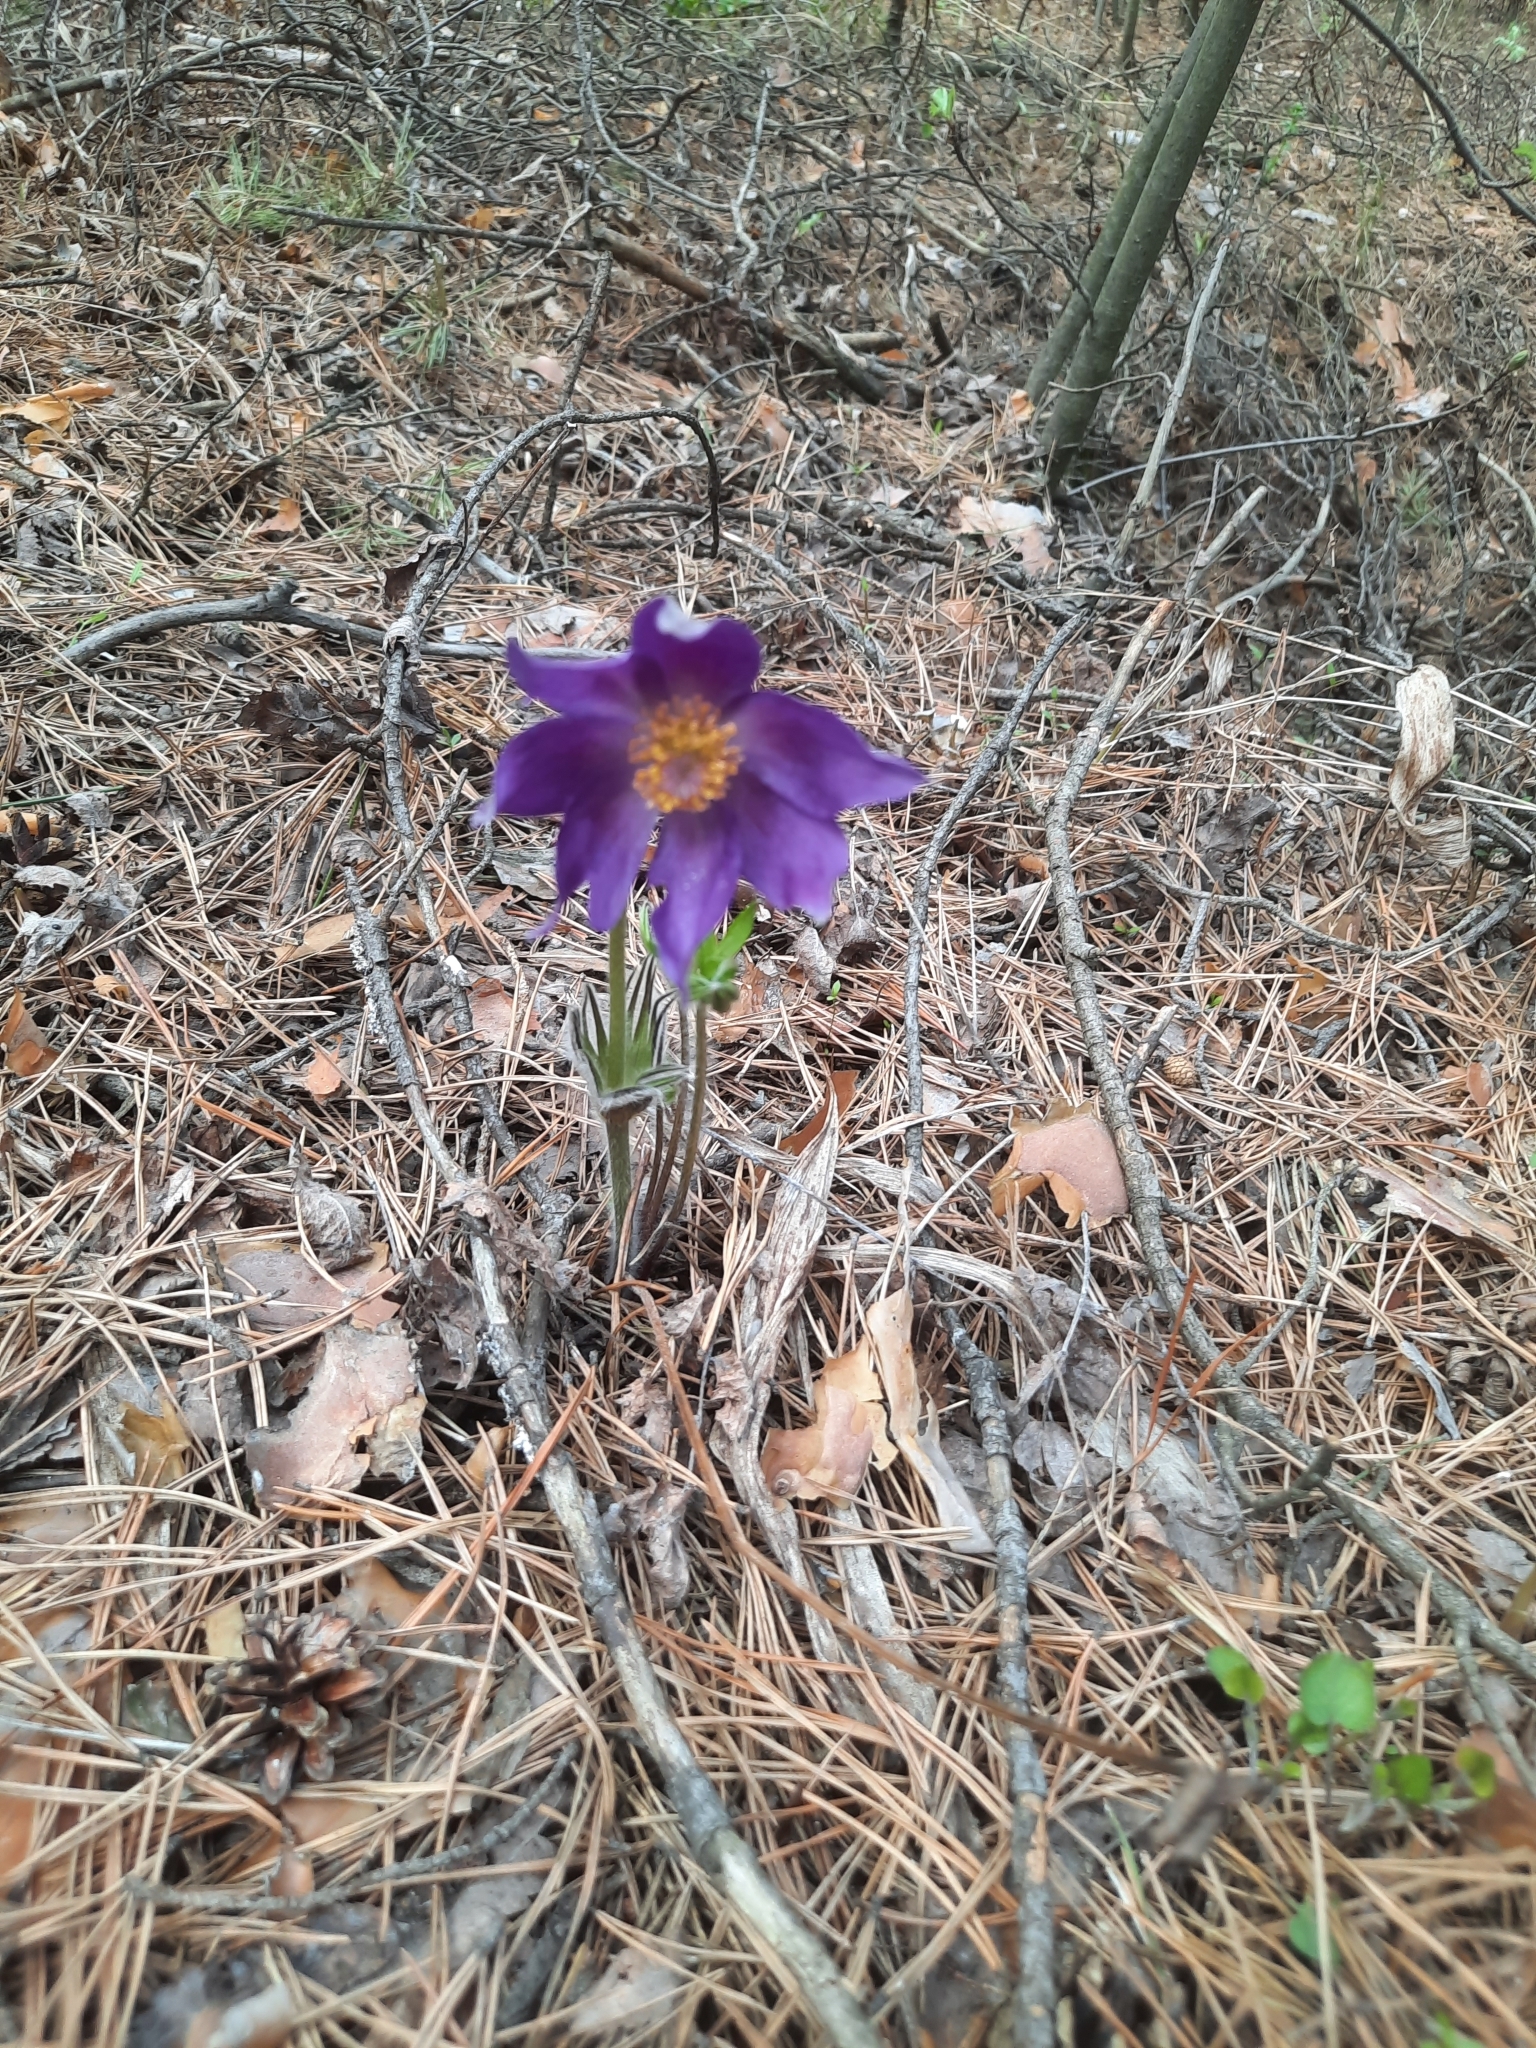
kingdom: Plantae
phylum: Tracheophyta
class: Magnoliopsida
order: Ranunculales
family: Ranunculaceae
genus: Pulsatilla
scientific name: Pulsatilla patens
